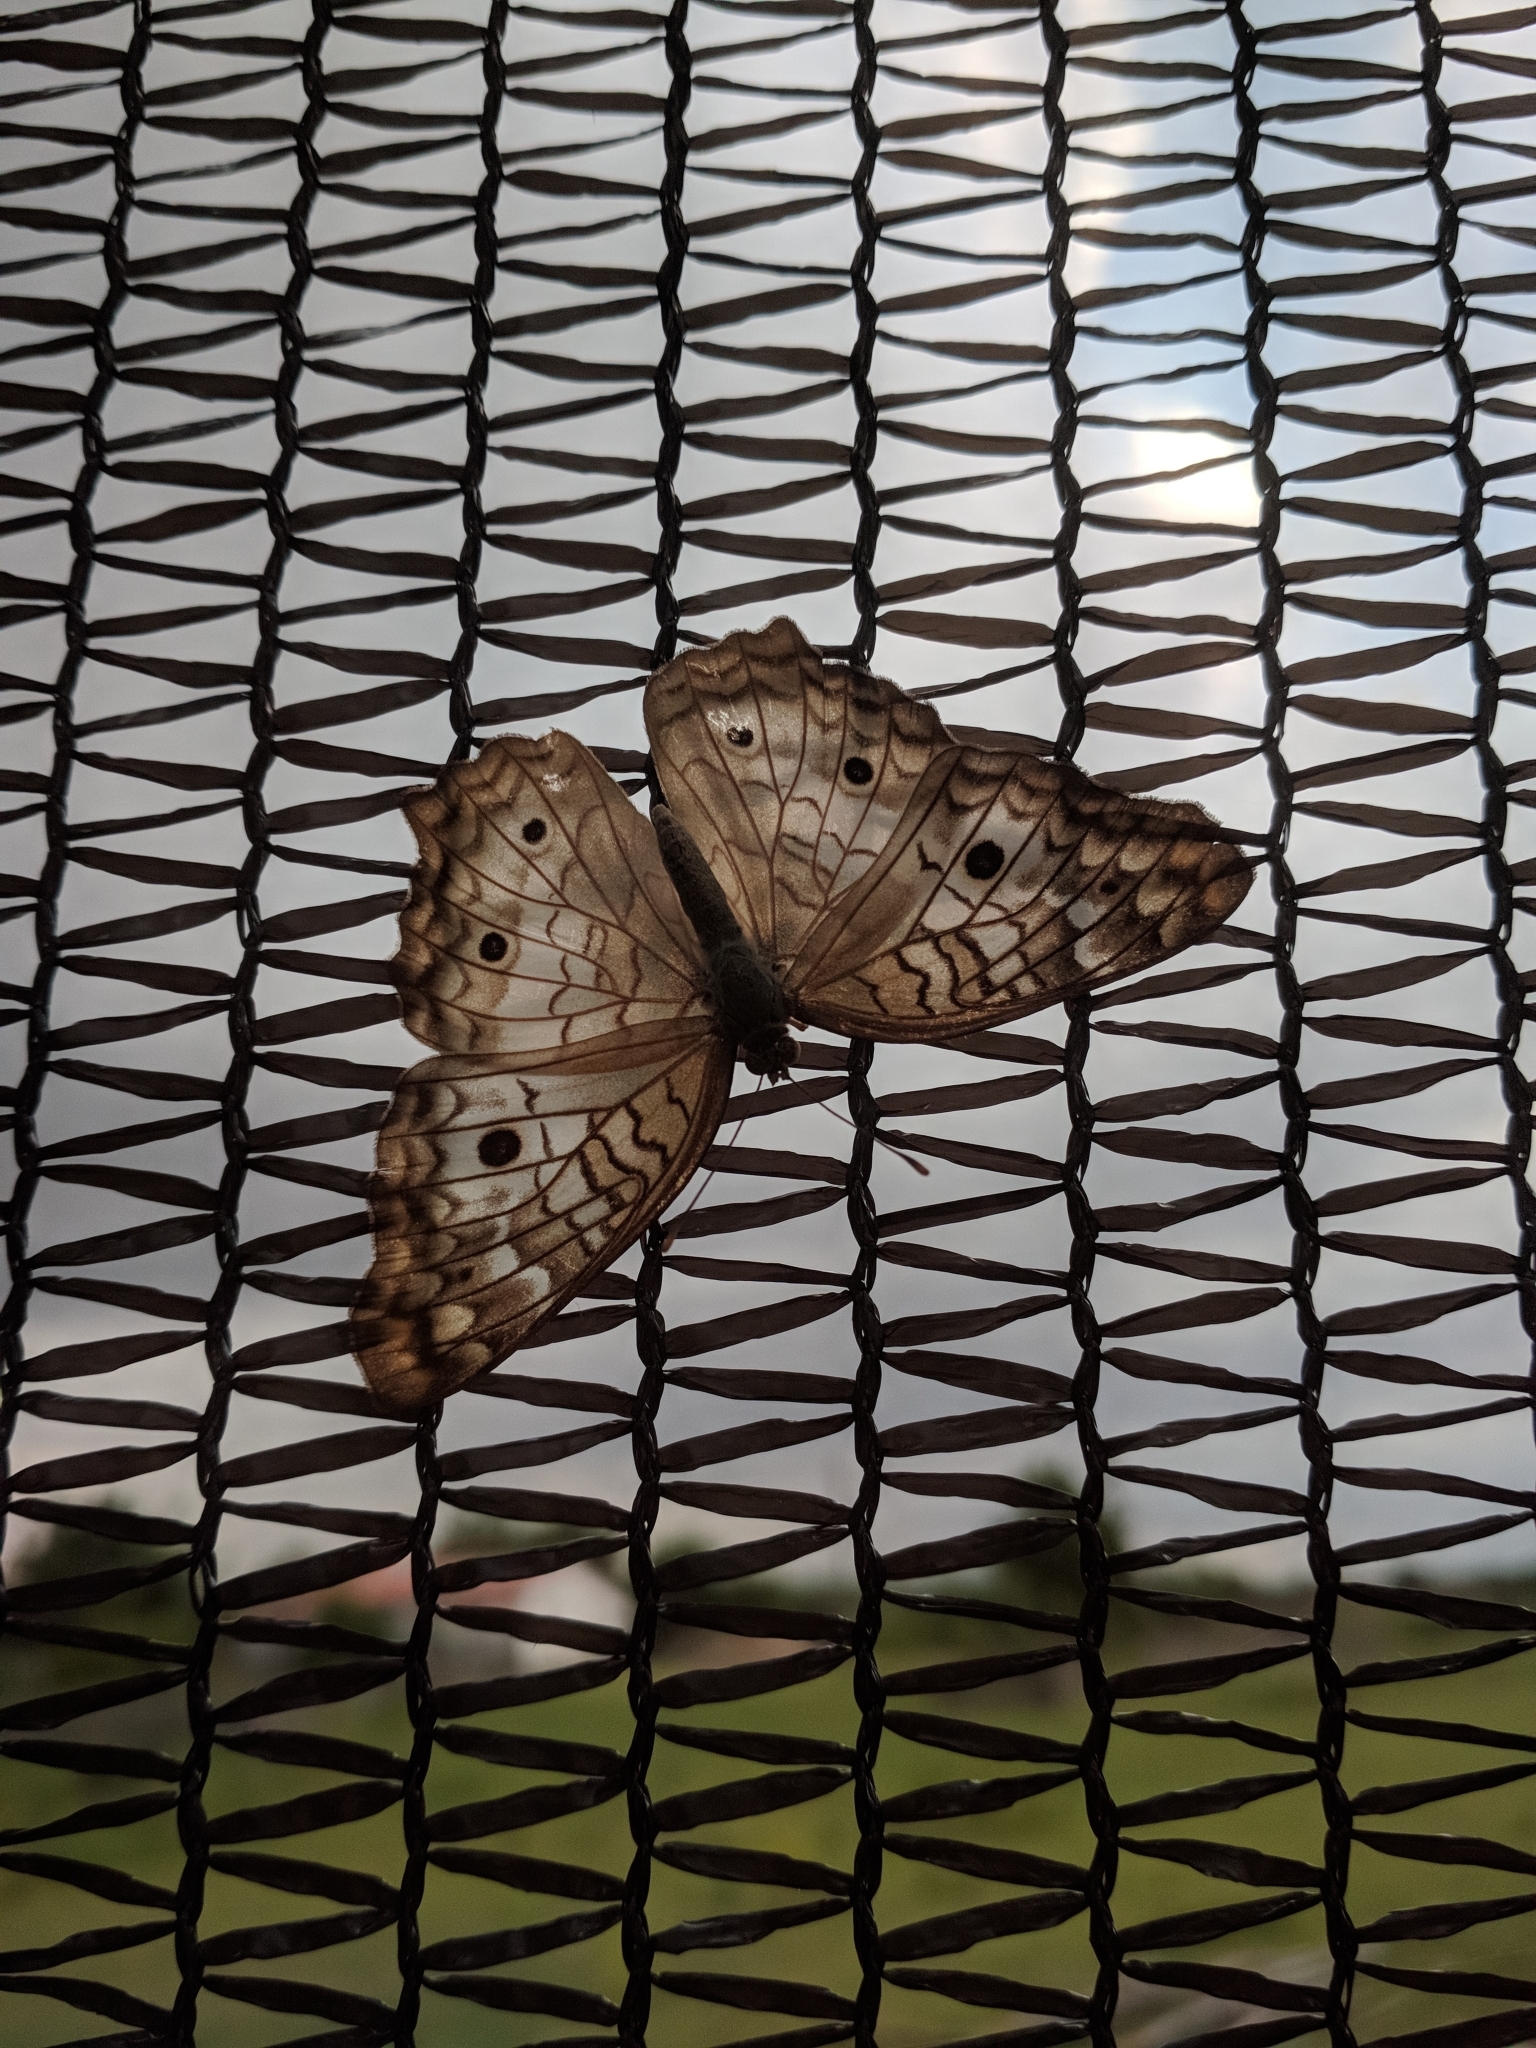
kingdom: Animalia
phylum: Arthropoda
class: Insecta
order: Lepidoptera
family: Nymphalidae
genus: Anartia
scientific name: Anartia jatrophae
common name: White peacock
